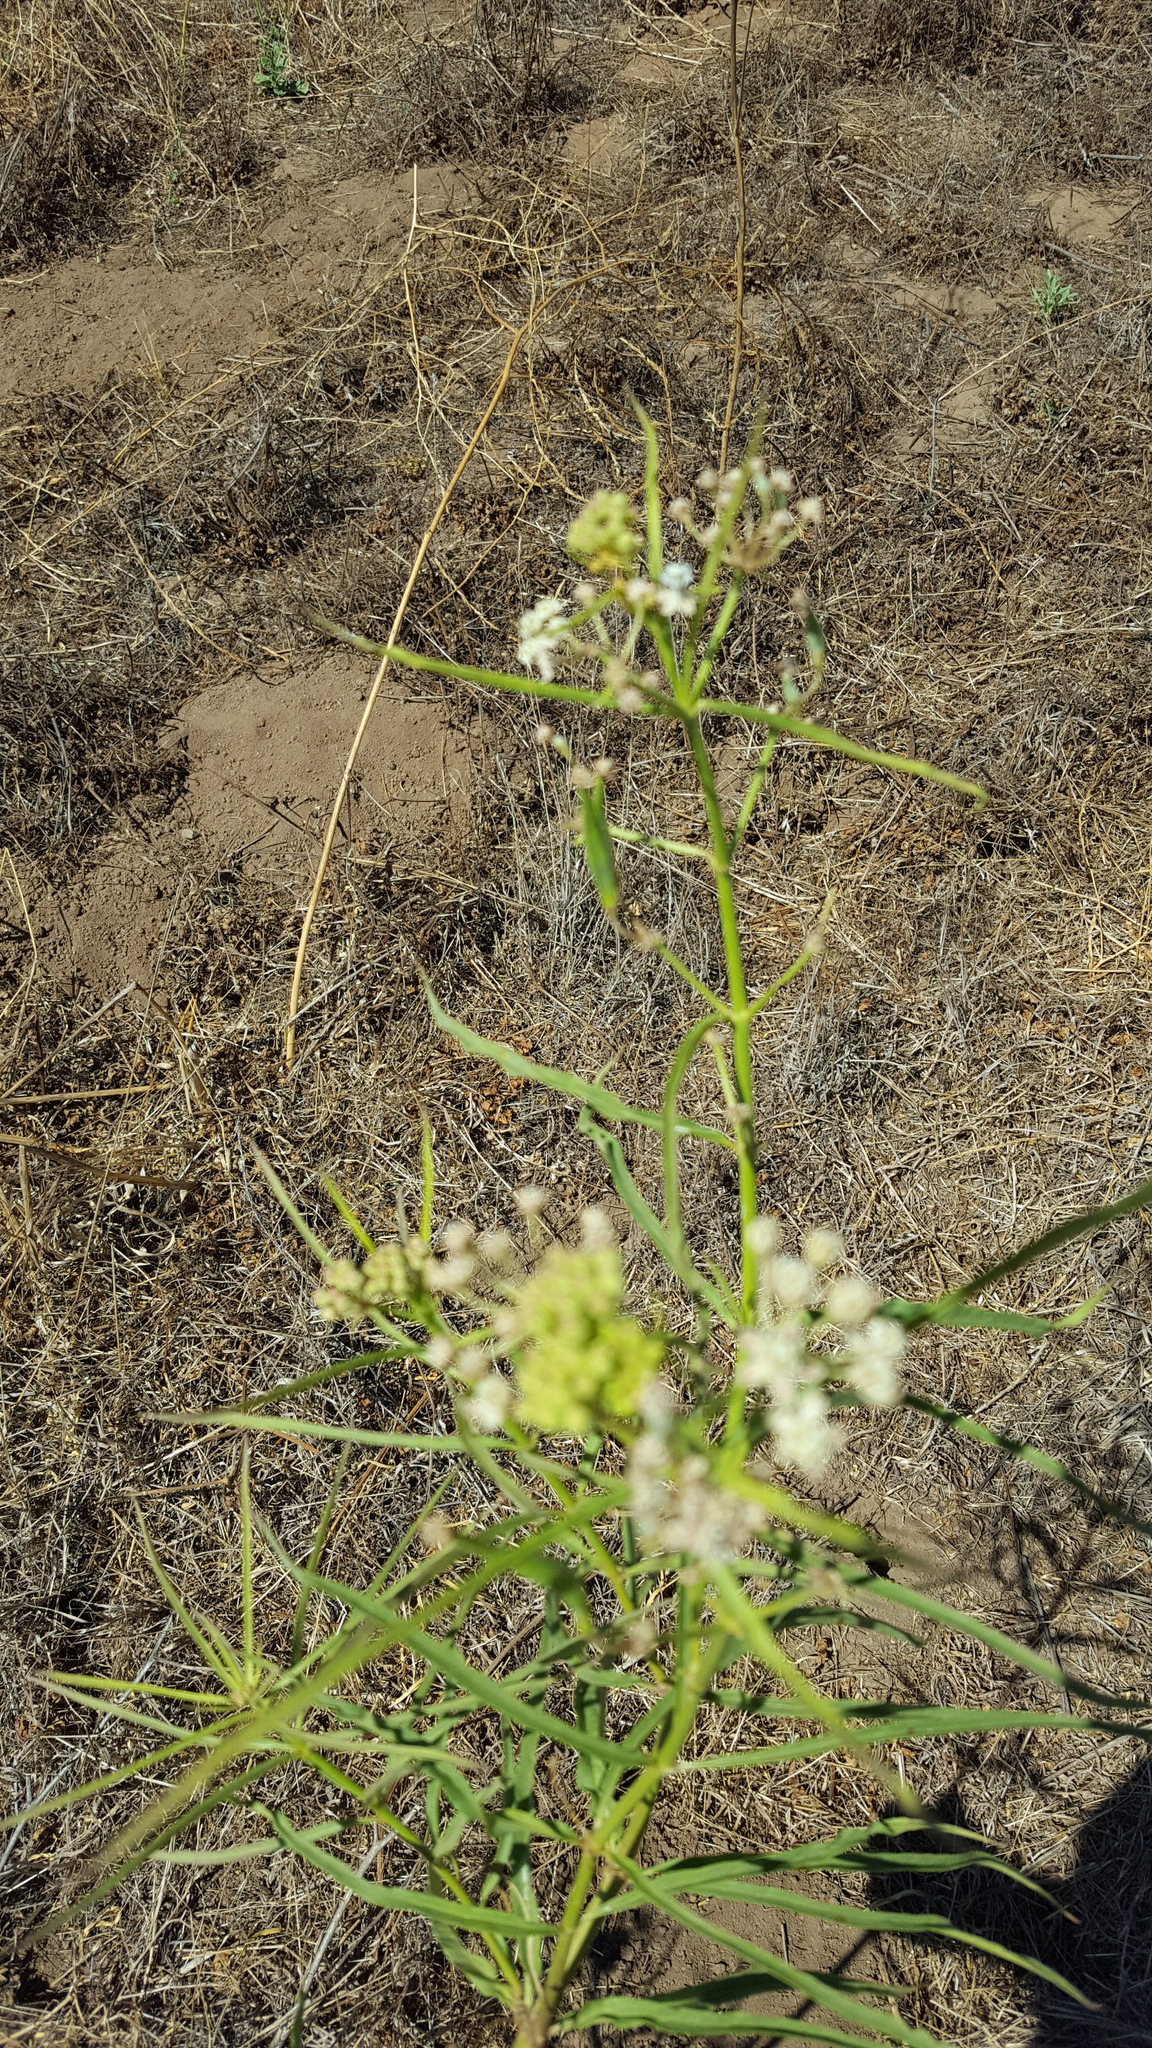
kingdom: Plantae
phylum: Tracheophyta
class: Magnoliopsida
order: Gentianales
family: Apocynaceae
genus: Asclepias
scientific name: Asclepias fascicularis
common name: Mexican milkweed
